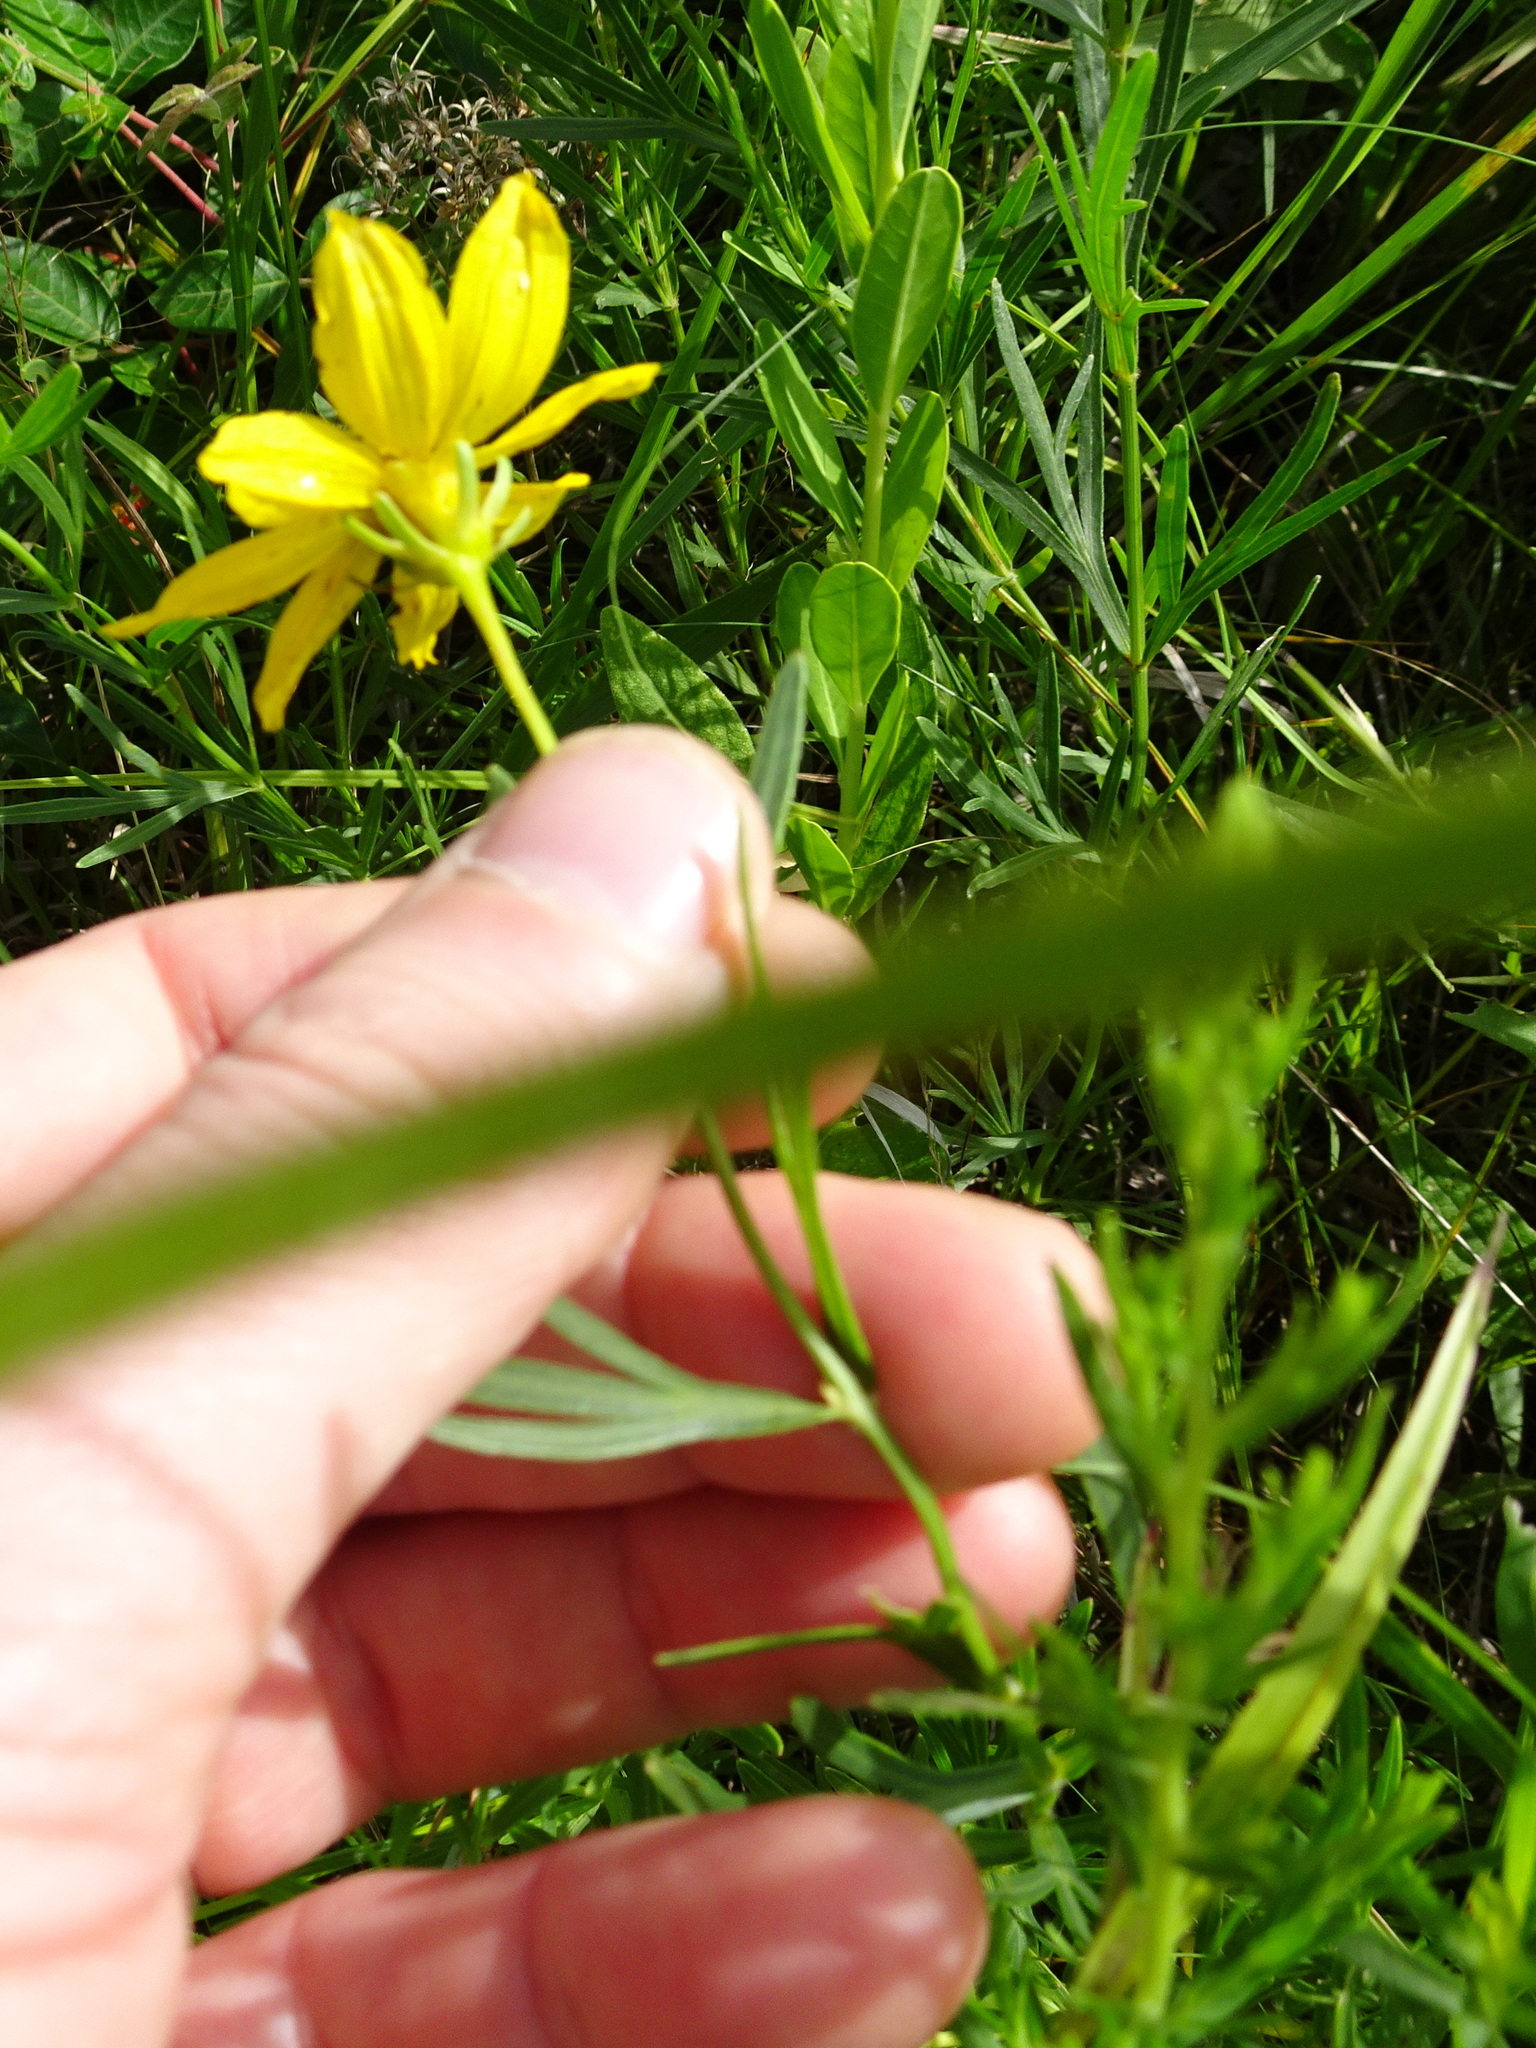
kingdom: Plantae
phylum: Tracheophyta
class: Magnoliopsida
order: Asterales
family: Asteraceae
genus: Coreopsis
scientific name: Coreopsis palmata
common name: Prairie coreopsis
